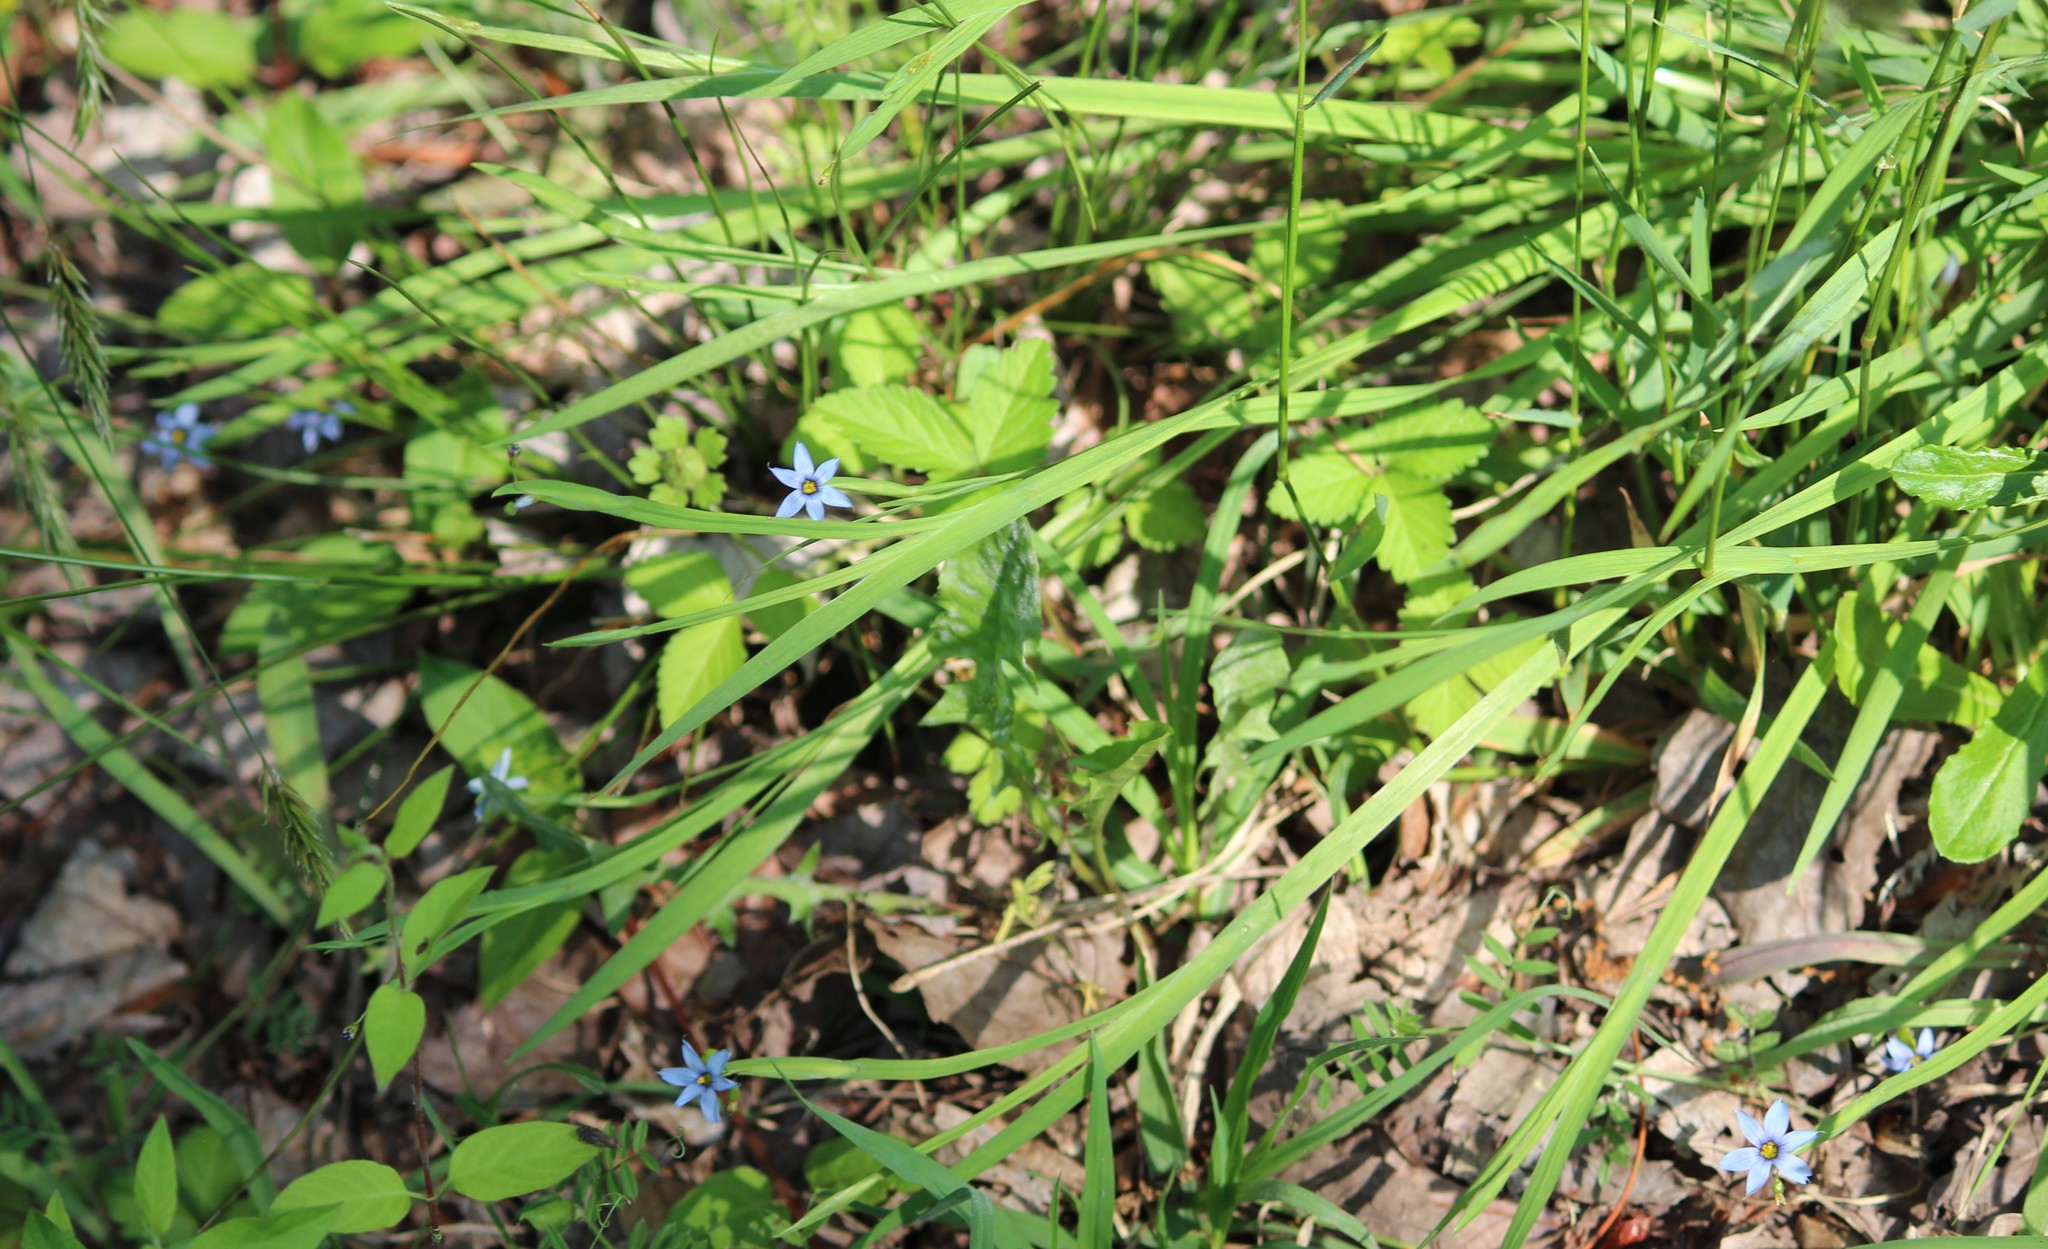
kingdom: Plantae
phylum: Tracheophyta
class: Liliopsida
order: Asparagales
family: Iridaceae
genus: Sisyrinchium
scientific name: Sisyrinchium angustifolium
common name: Narrow-leaf blue-eyed-grass
